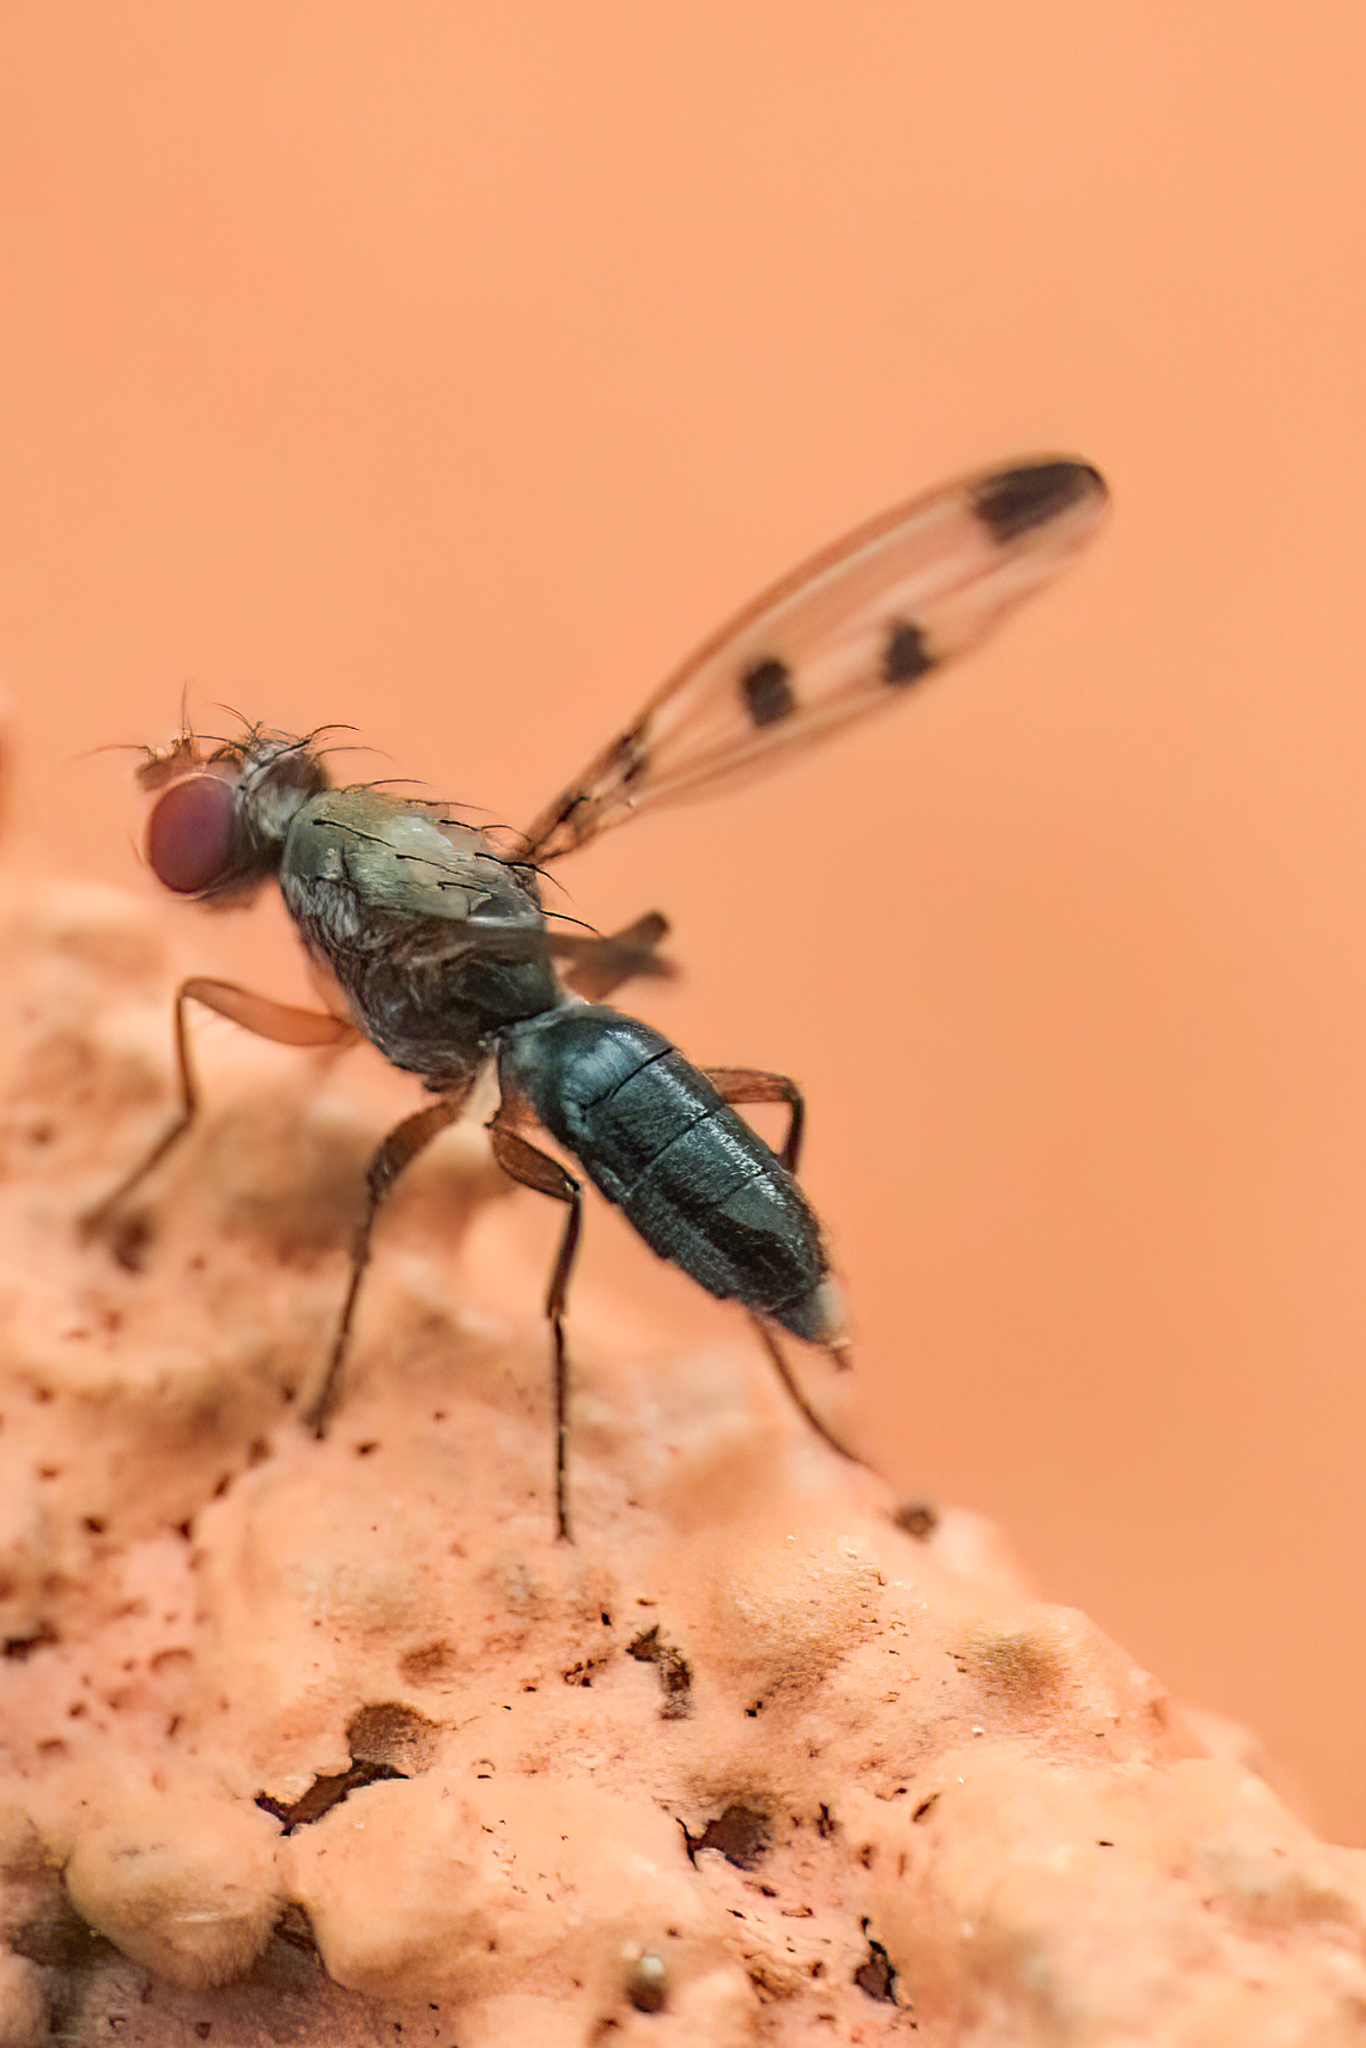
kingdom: Animalia
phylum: Arthropoda
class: Insecta
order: Diptera
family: Opomyzidae
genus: Geomyza
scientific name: Geomyza tripunctata
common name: Cereal fly
